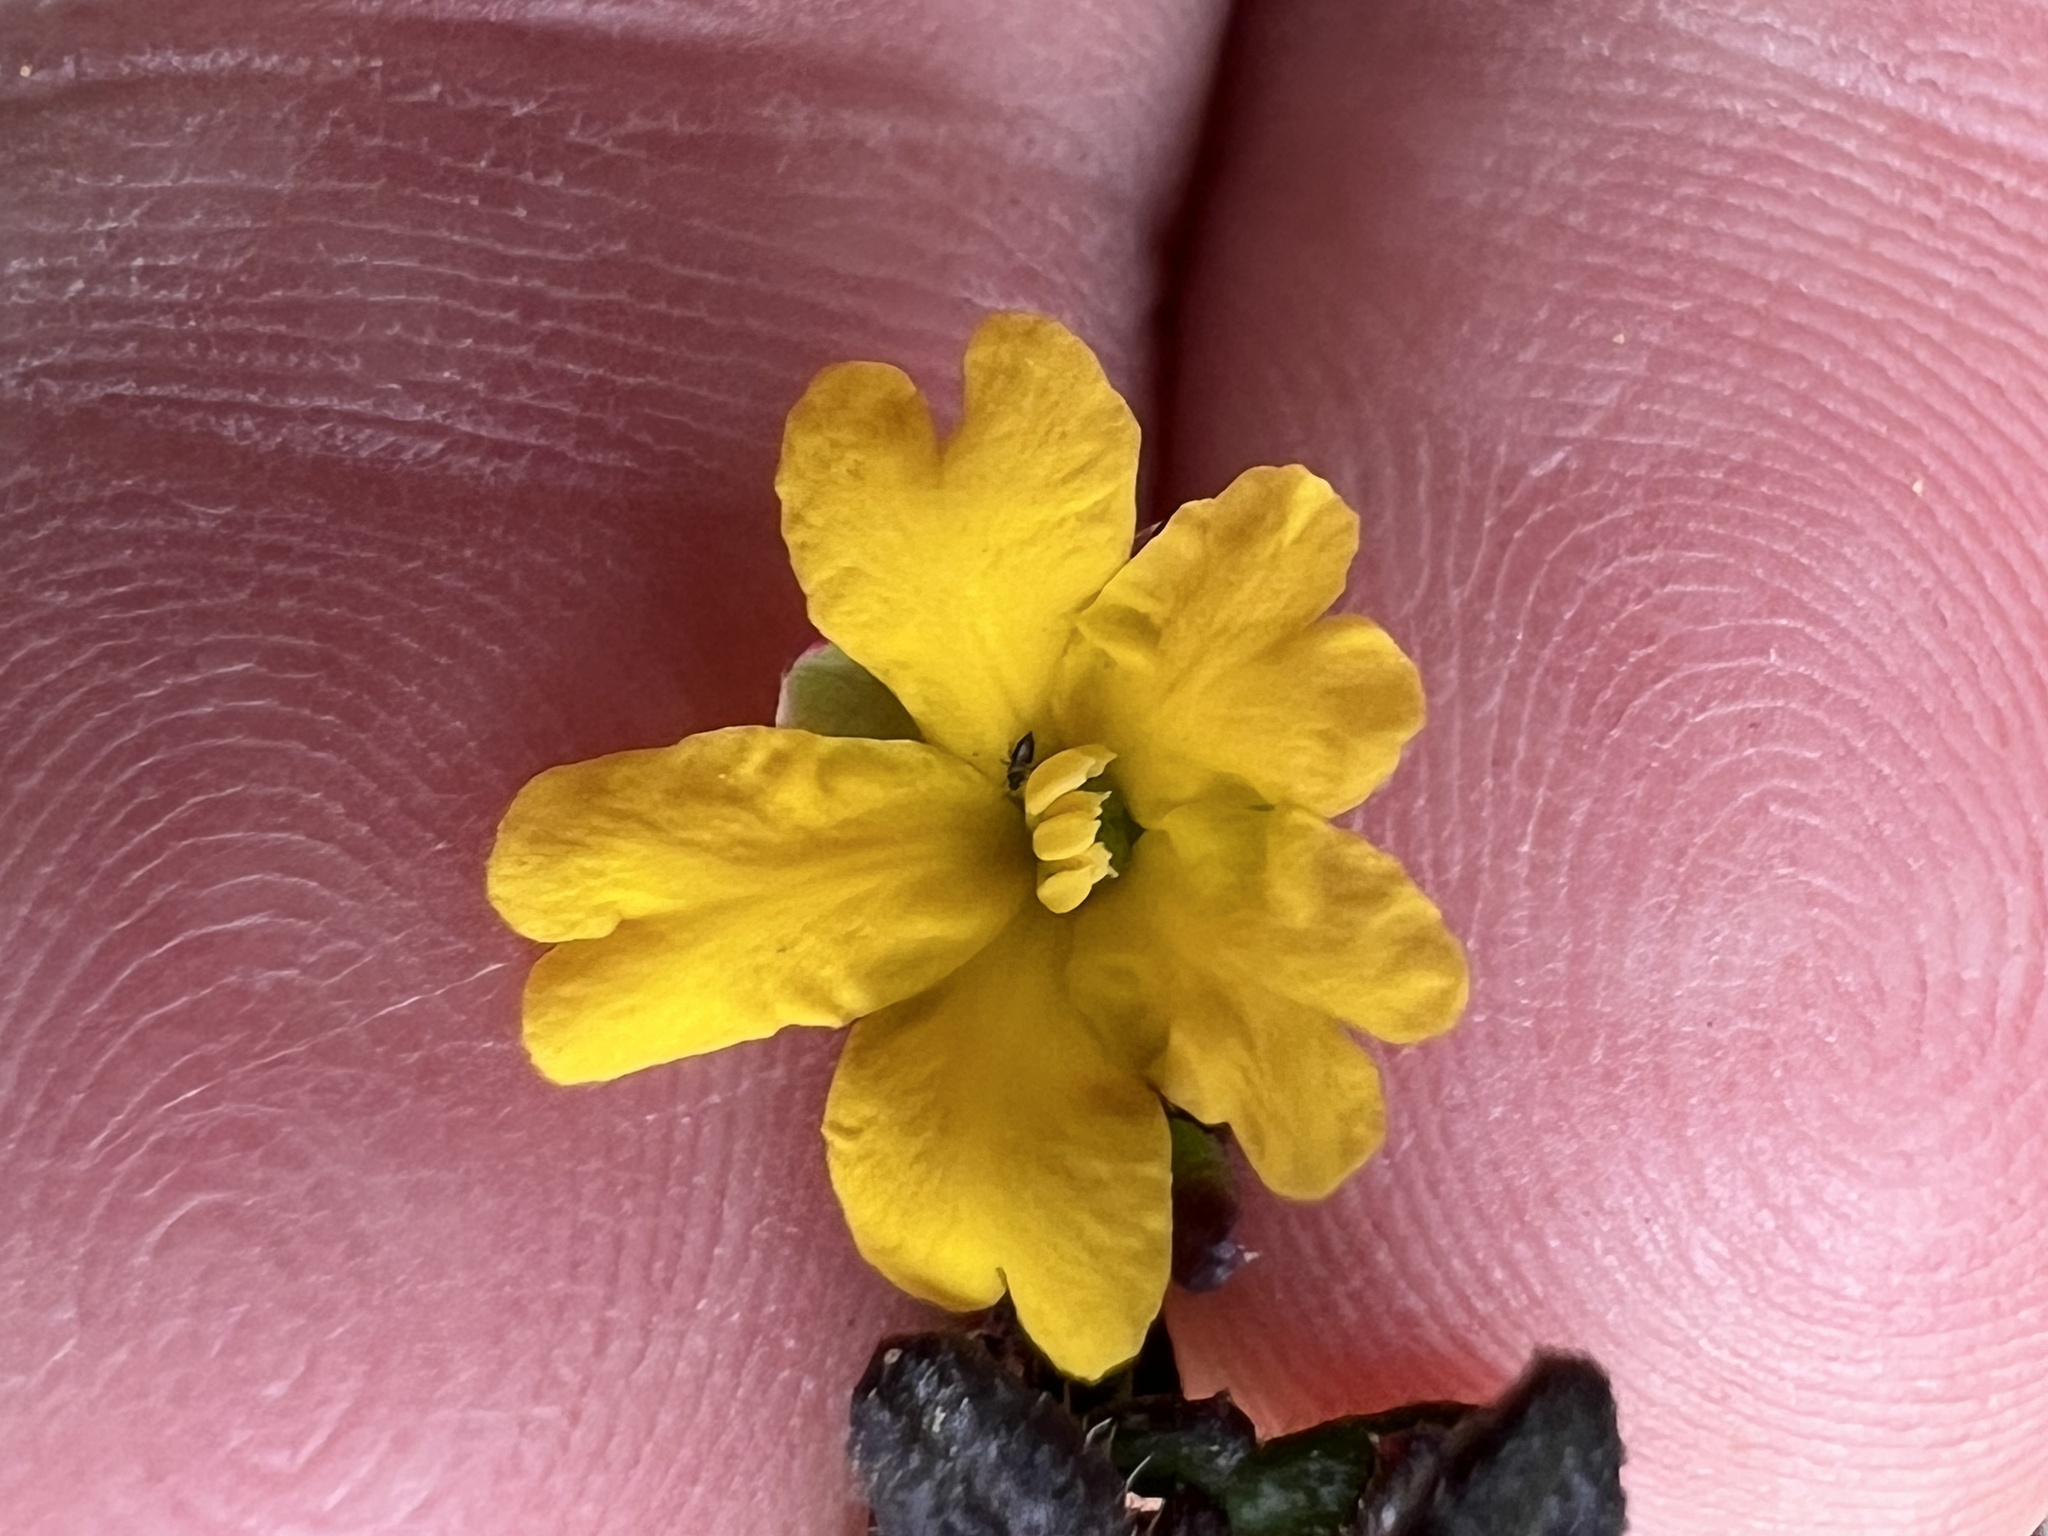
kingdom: Plantae
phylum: Tracheophyta
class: Magnoliopsida
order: Dilleniales
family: Dilleniaceae
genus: Hibbertia
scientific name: Hibbertia empetrifolia
